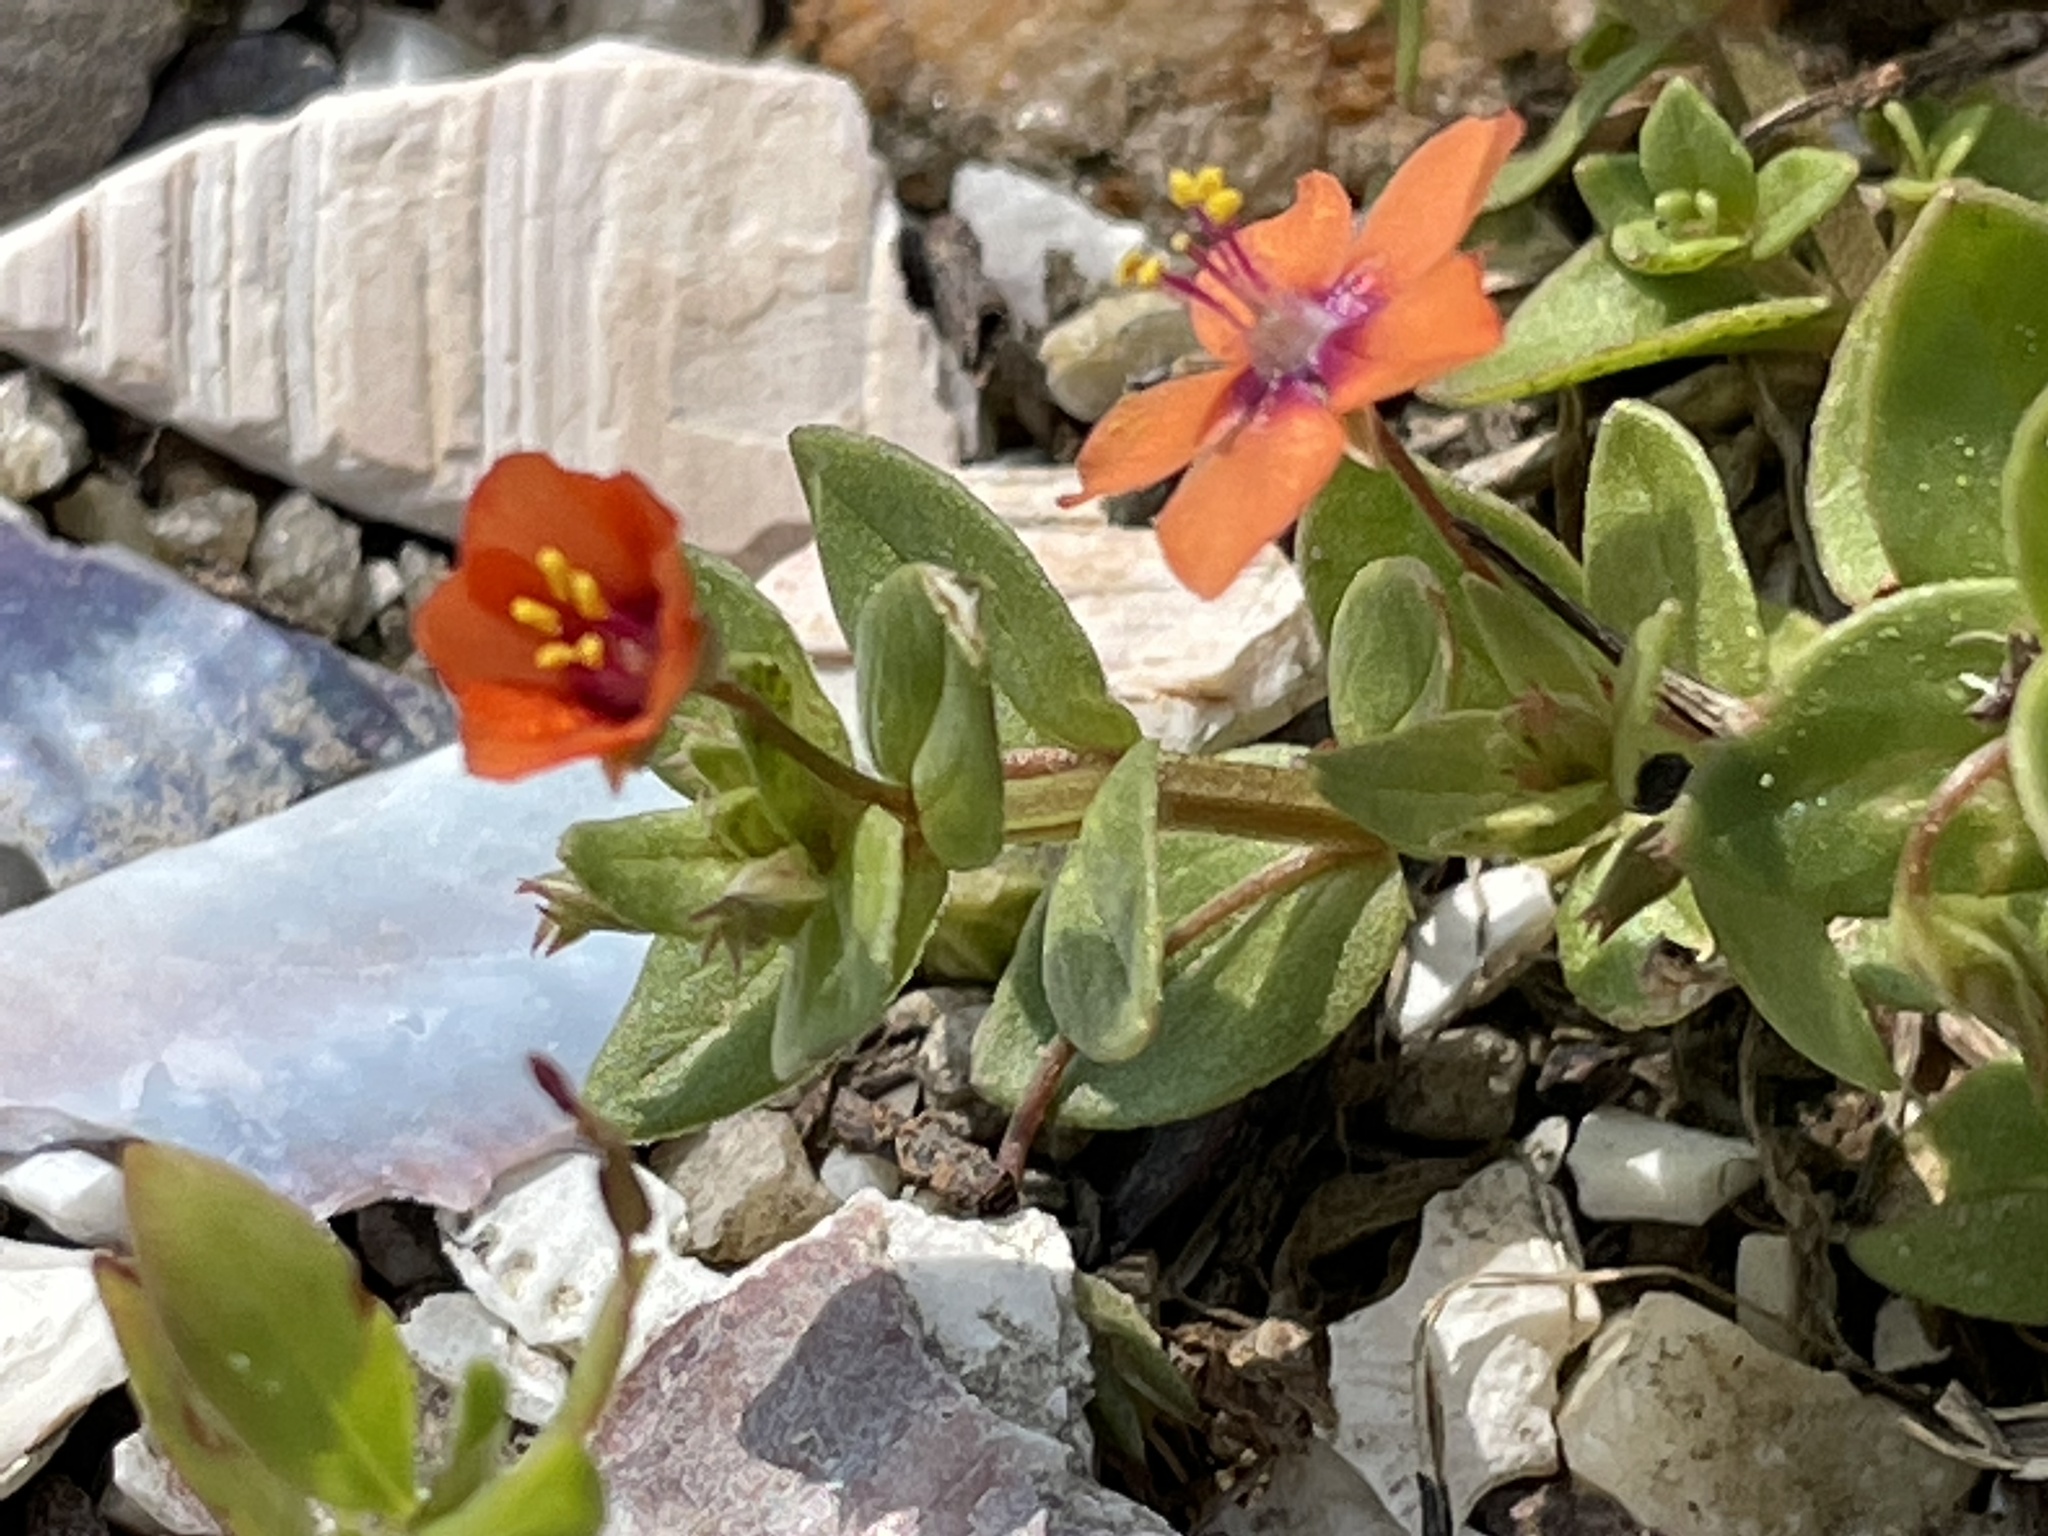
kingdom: Plantae
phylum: Tracheophyta
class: Magnoliopsida
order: Ericales
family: Primulaceae
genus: Lysimachia
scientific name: Lysimachia arvensis
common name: Scarlet pimpernel
